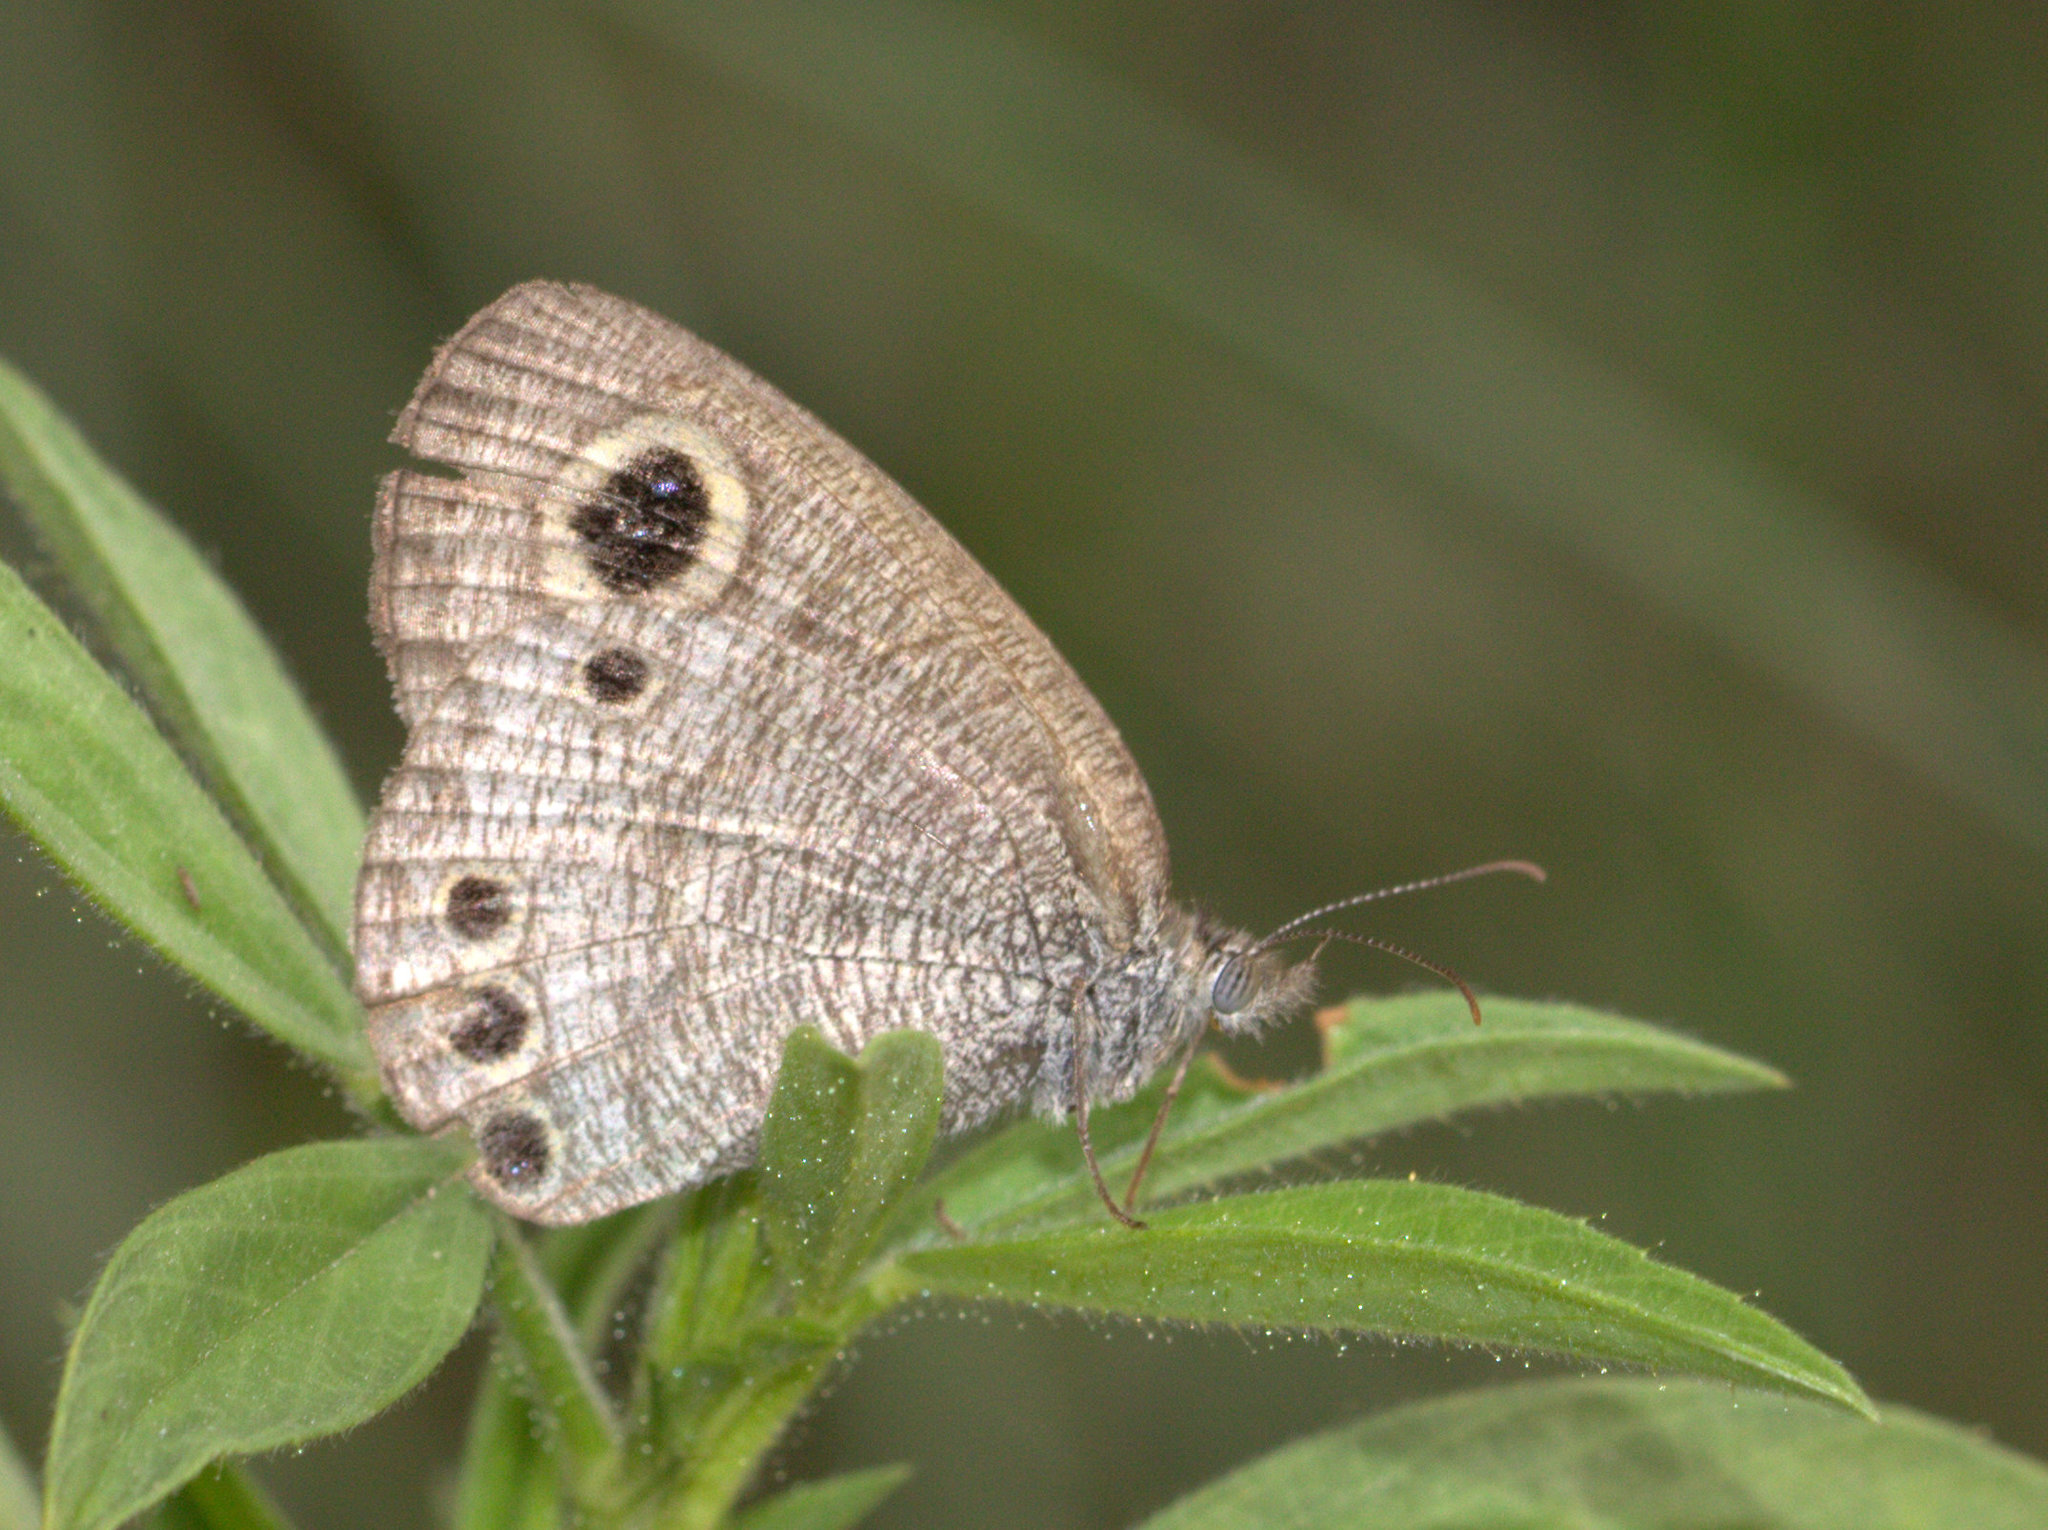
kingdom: Animalia
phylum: Arthropoda
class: Insecta
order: Lepidoptera
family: Nymphalidae
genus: Ypthima
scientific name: Ypthima huebneri
